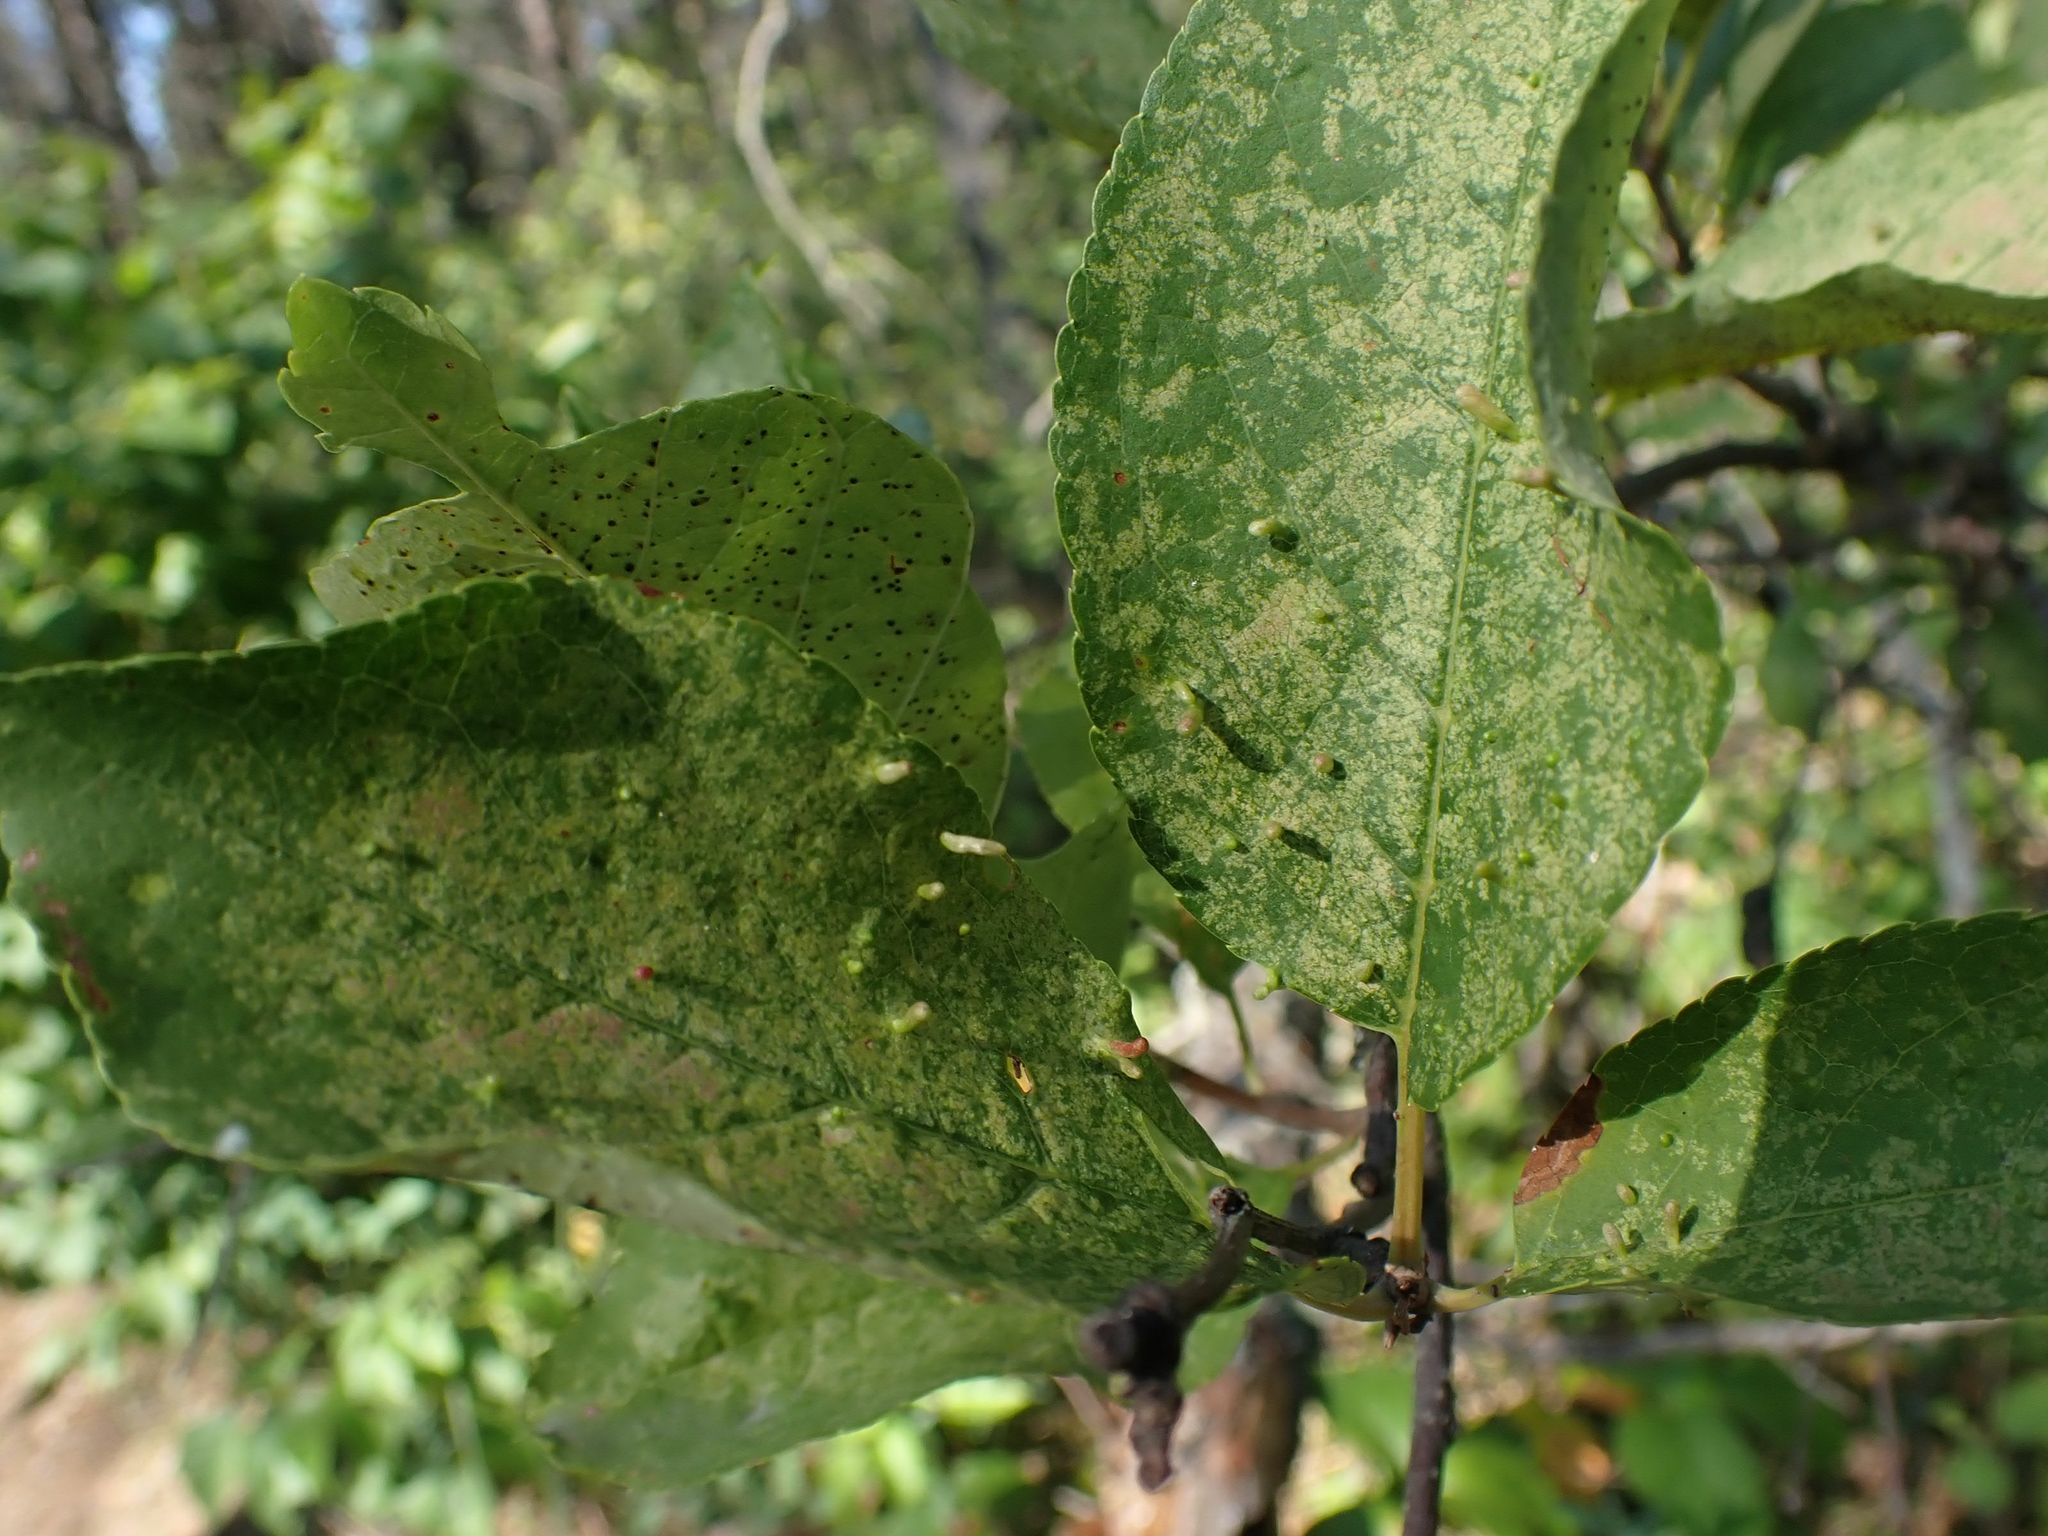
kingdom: Animalia
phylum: Arthropoda
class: Arachnida
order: Trombidiformes
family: Eriophyidae
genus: Eriophyes
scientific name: Eriophyes emarginatae
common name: Plum leaf gall mite
